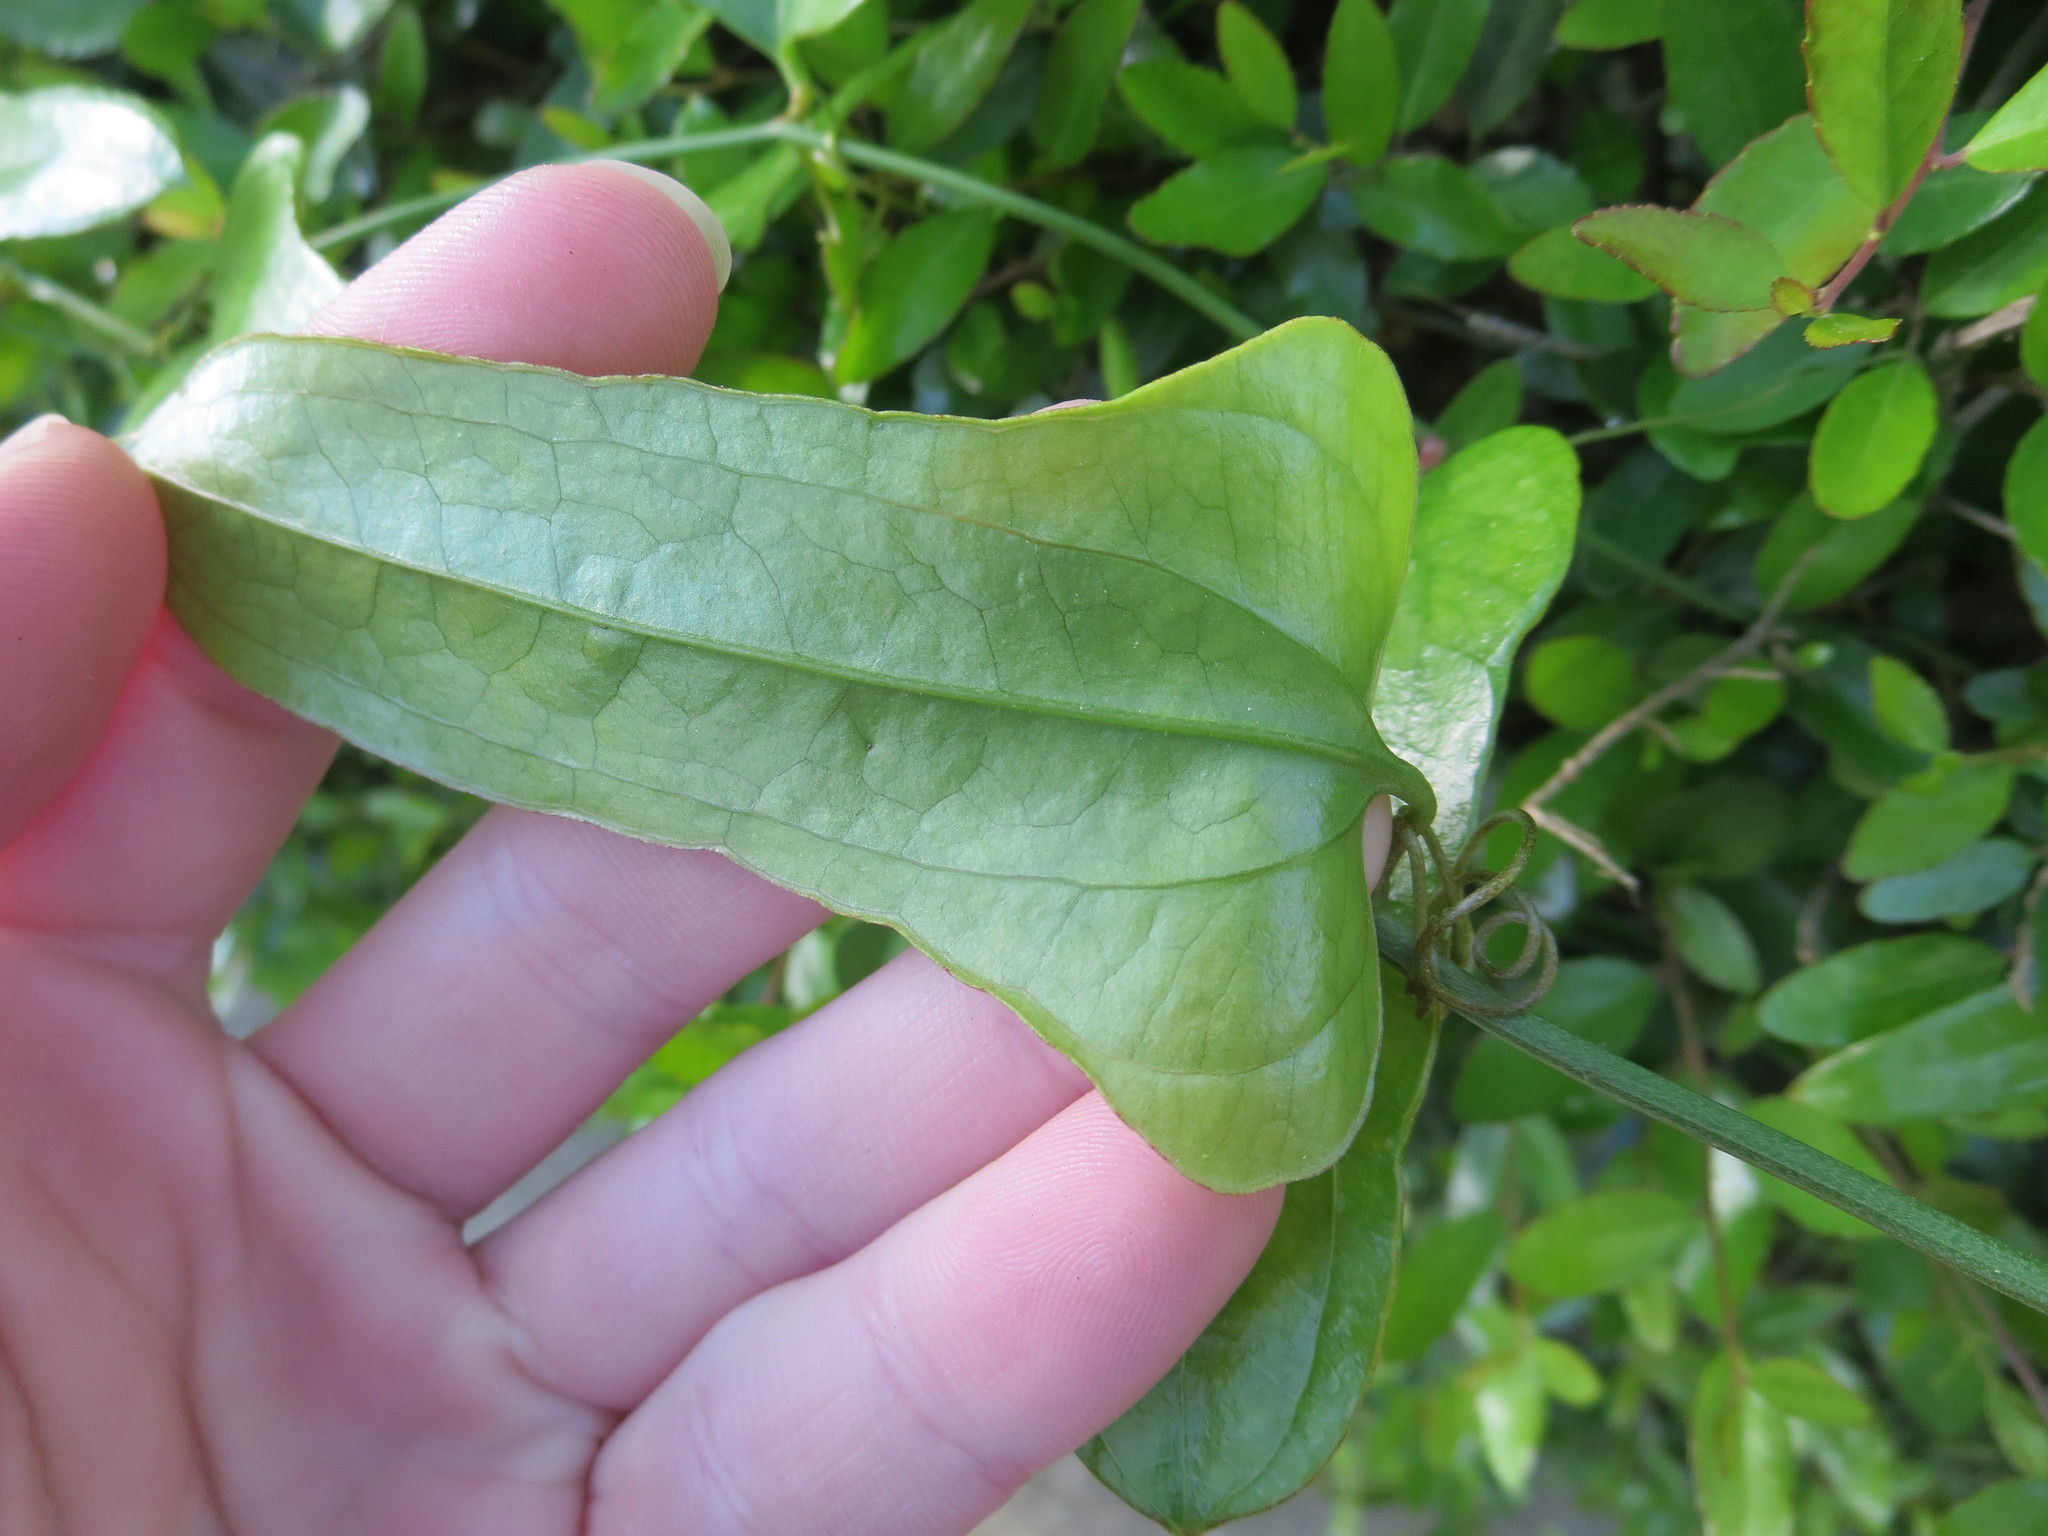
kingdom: Plantae
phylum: Tracheophyta
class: Liliopsida
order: Liliales
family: Smilacaceae
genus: Smilax
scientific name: Smilax auriculata
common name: Wild bamboo
